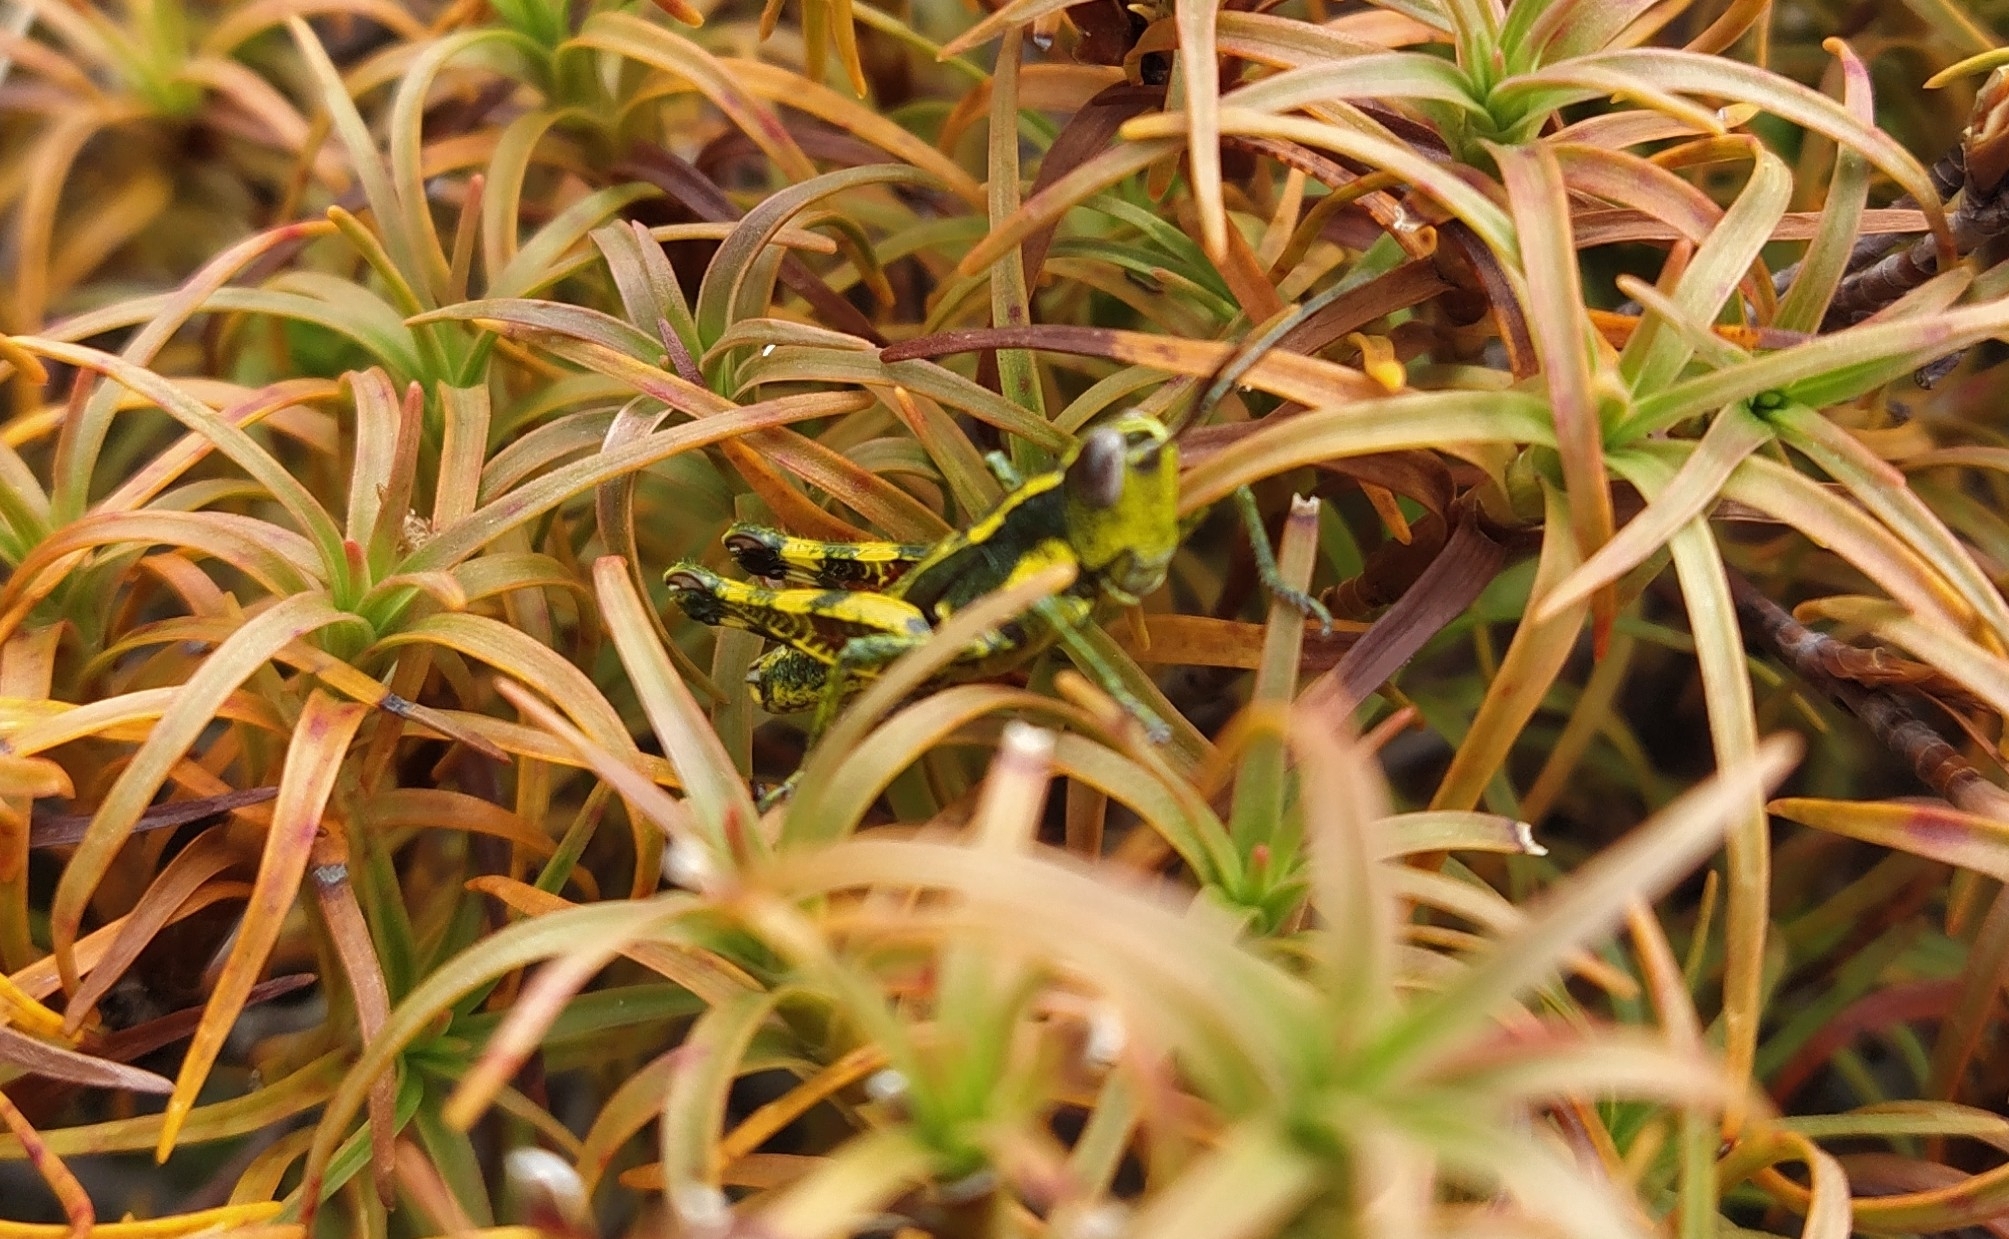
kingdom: Animalia
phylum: Arthropoda
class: Insecta
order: Orthoptera
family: Acrididae
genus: Sigaus
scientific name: Sigaus piliferus
